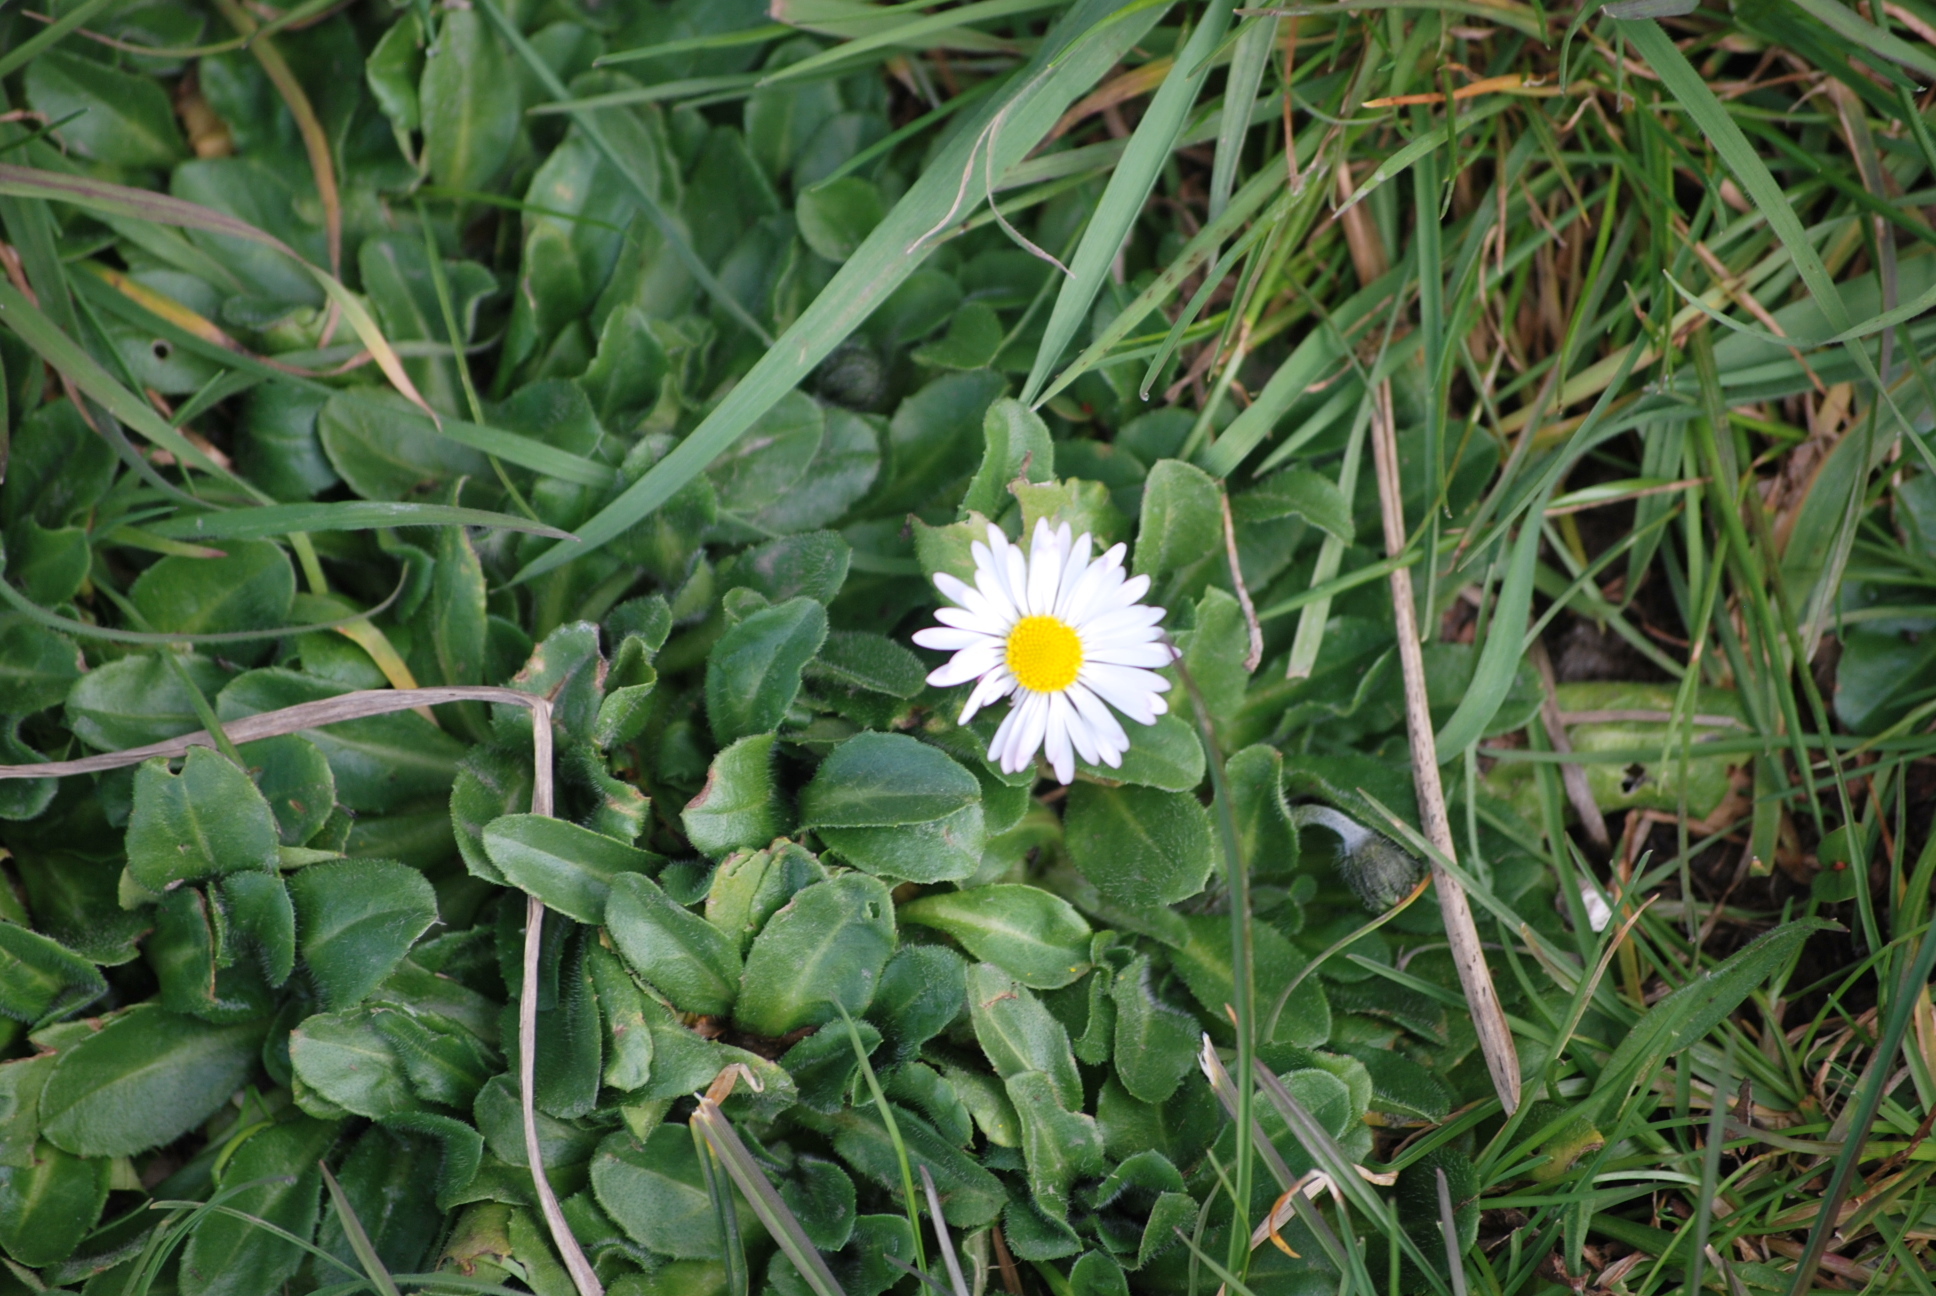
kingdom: Plantae
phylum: Tracheophyta
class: Magnoliopsida
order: Asterales
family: Asteraceae
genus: Bellis
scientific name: Bellis perennis
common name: Lawndaisy
